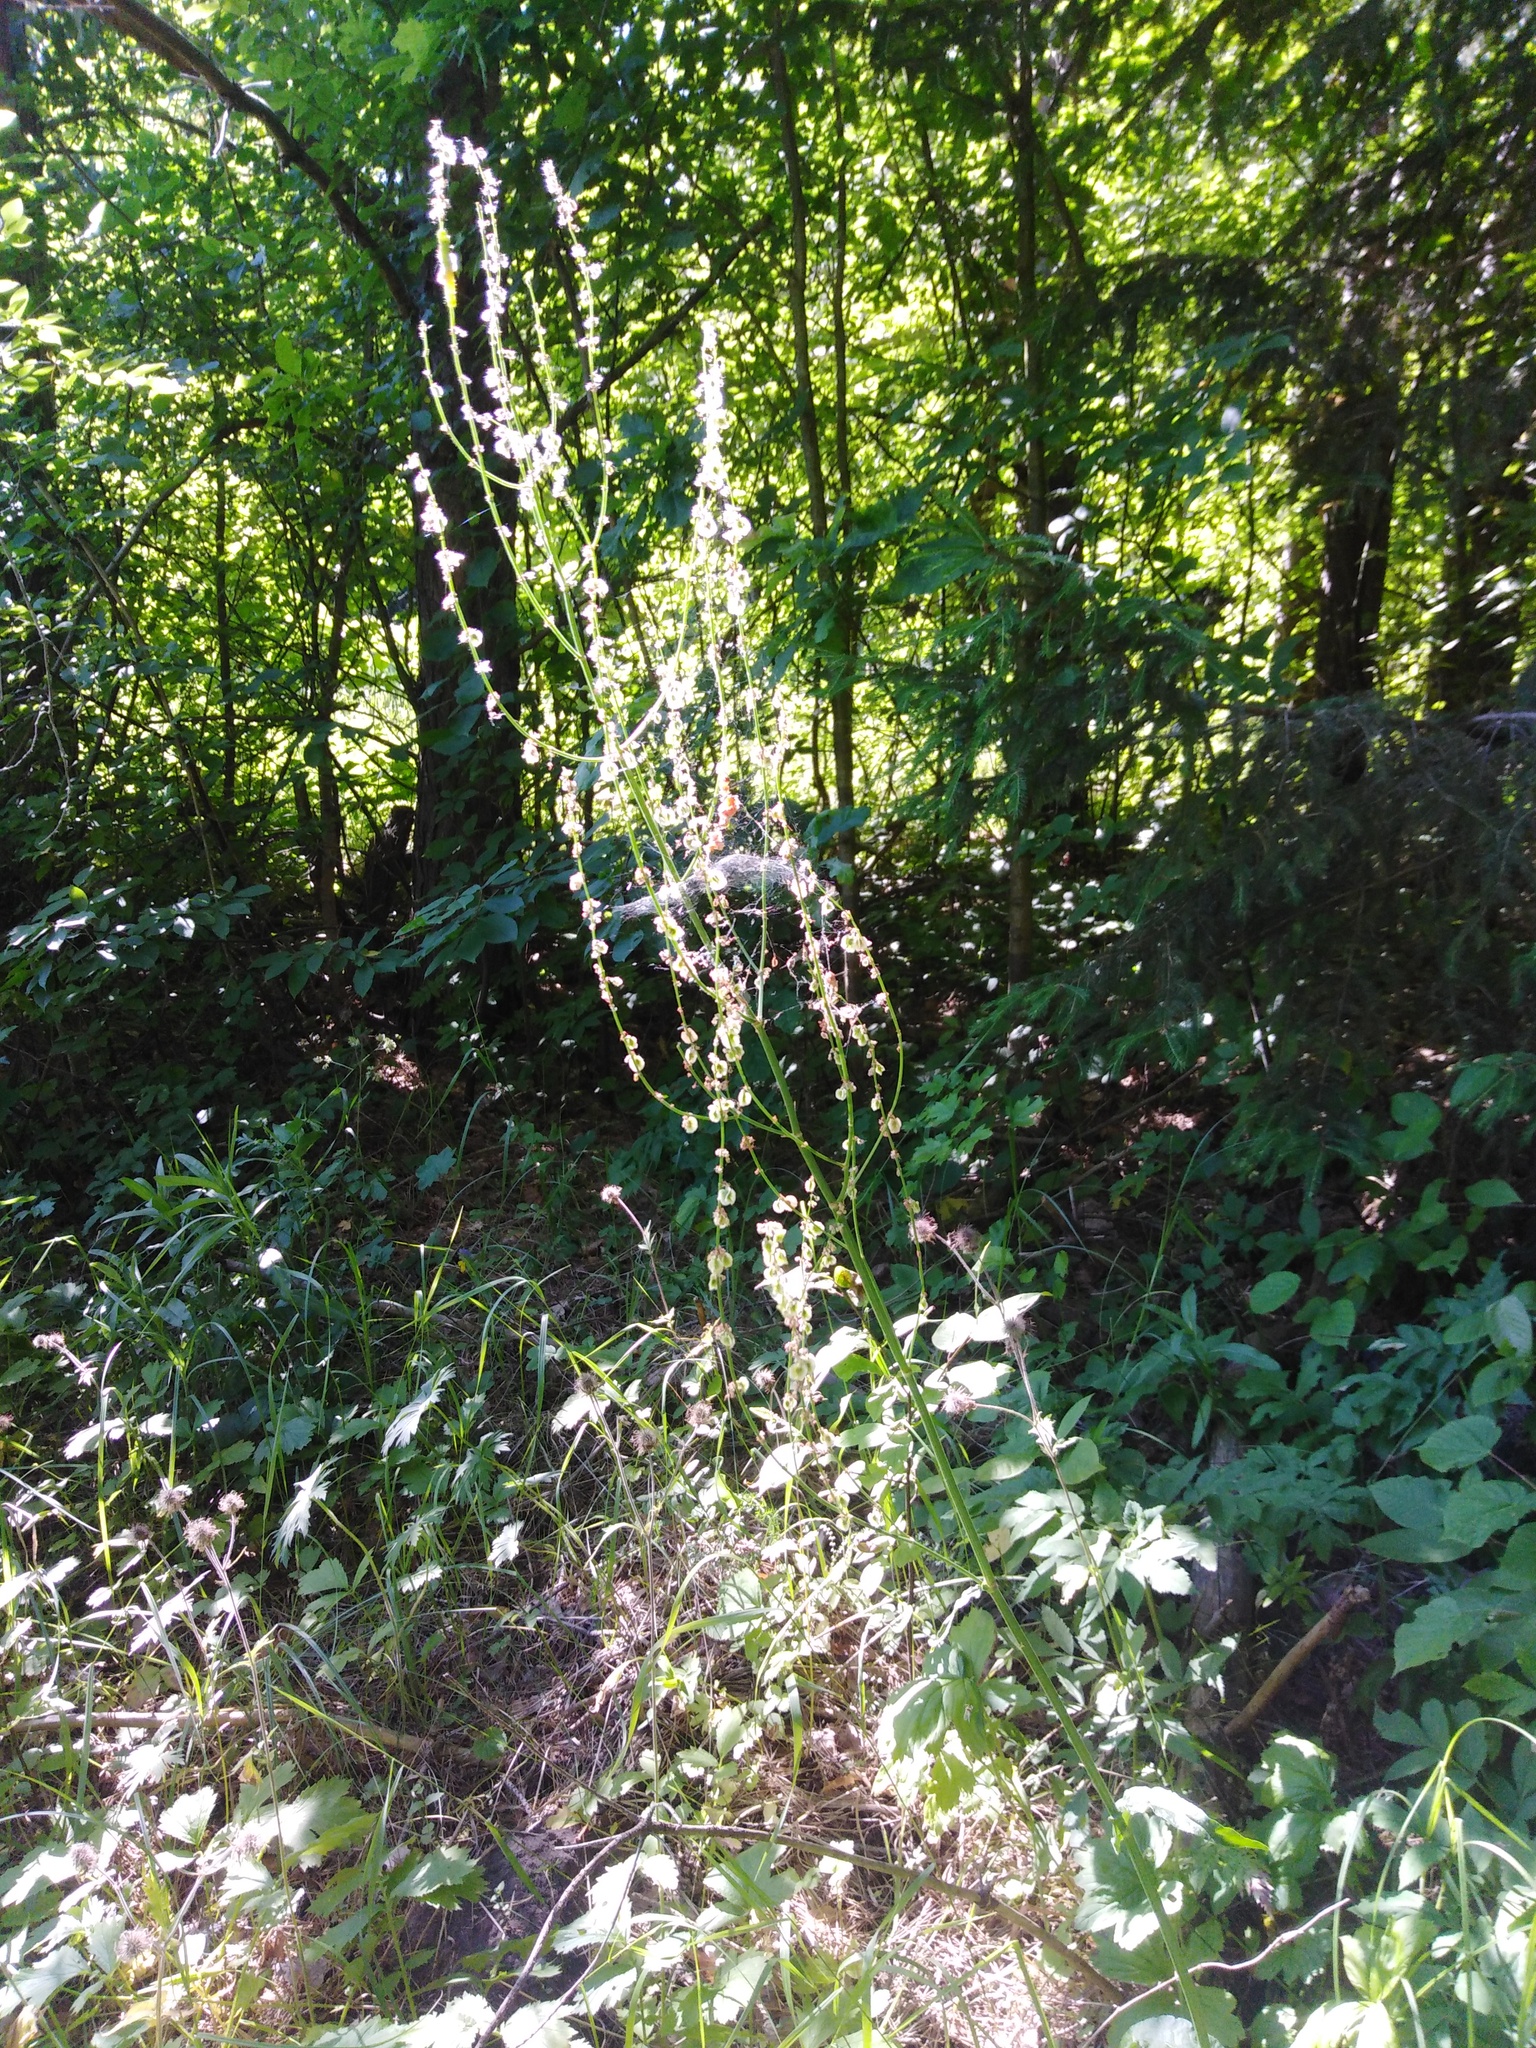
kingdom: Plantae
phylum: Tracheophyta
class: Magnoliopsida
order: Caryophyllales
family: Polygonaceae
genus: Rumex
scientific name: Rumex acetosa
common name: Garden sorrel
